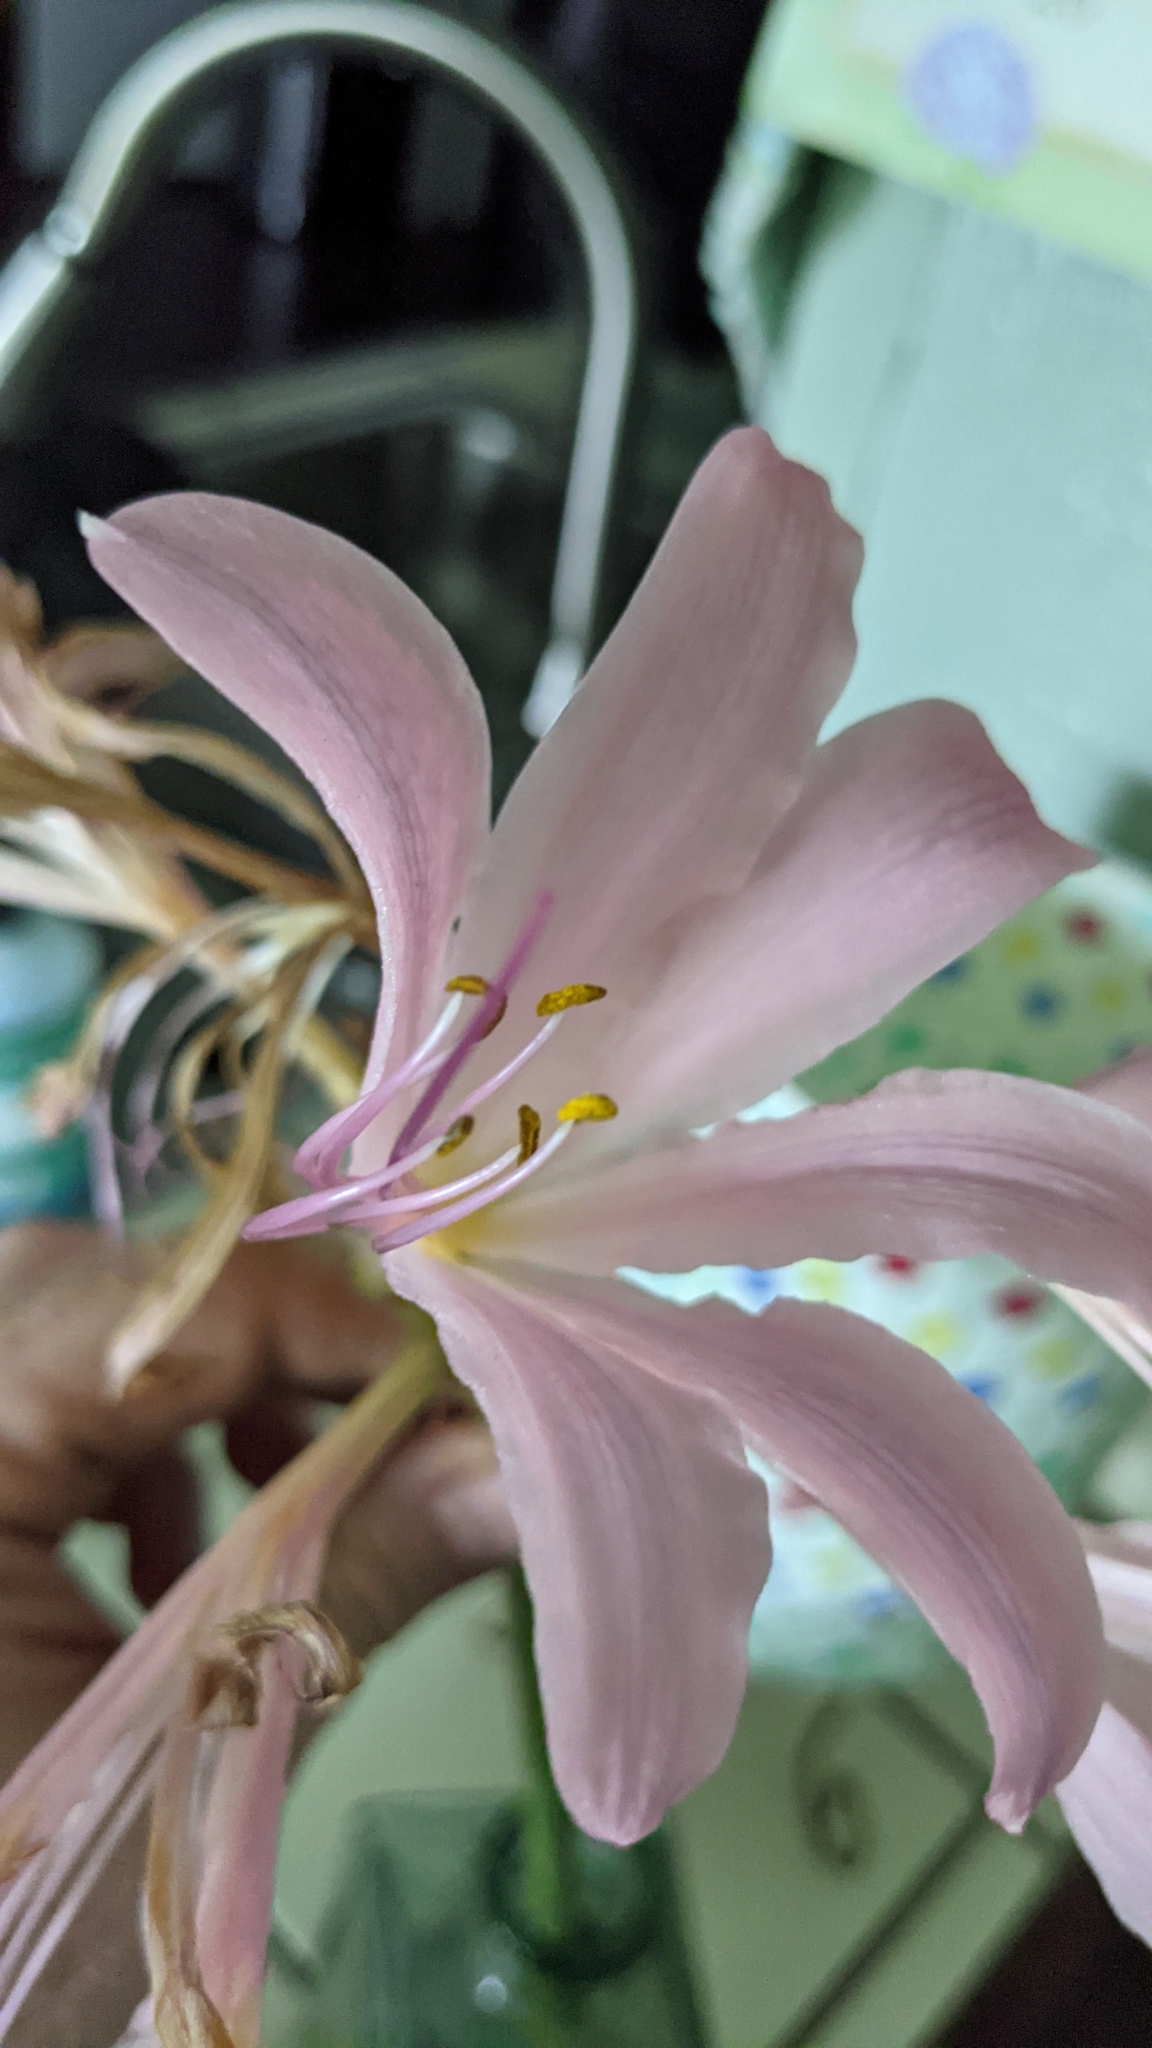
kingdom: Plantae
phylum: Tracheophyta
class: Liliopsida
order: Asparagales
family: Amaryllidaceae
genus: Lycoris
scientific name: Lycoris squamigera
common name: Magic-lily
